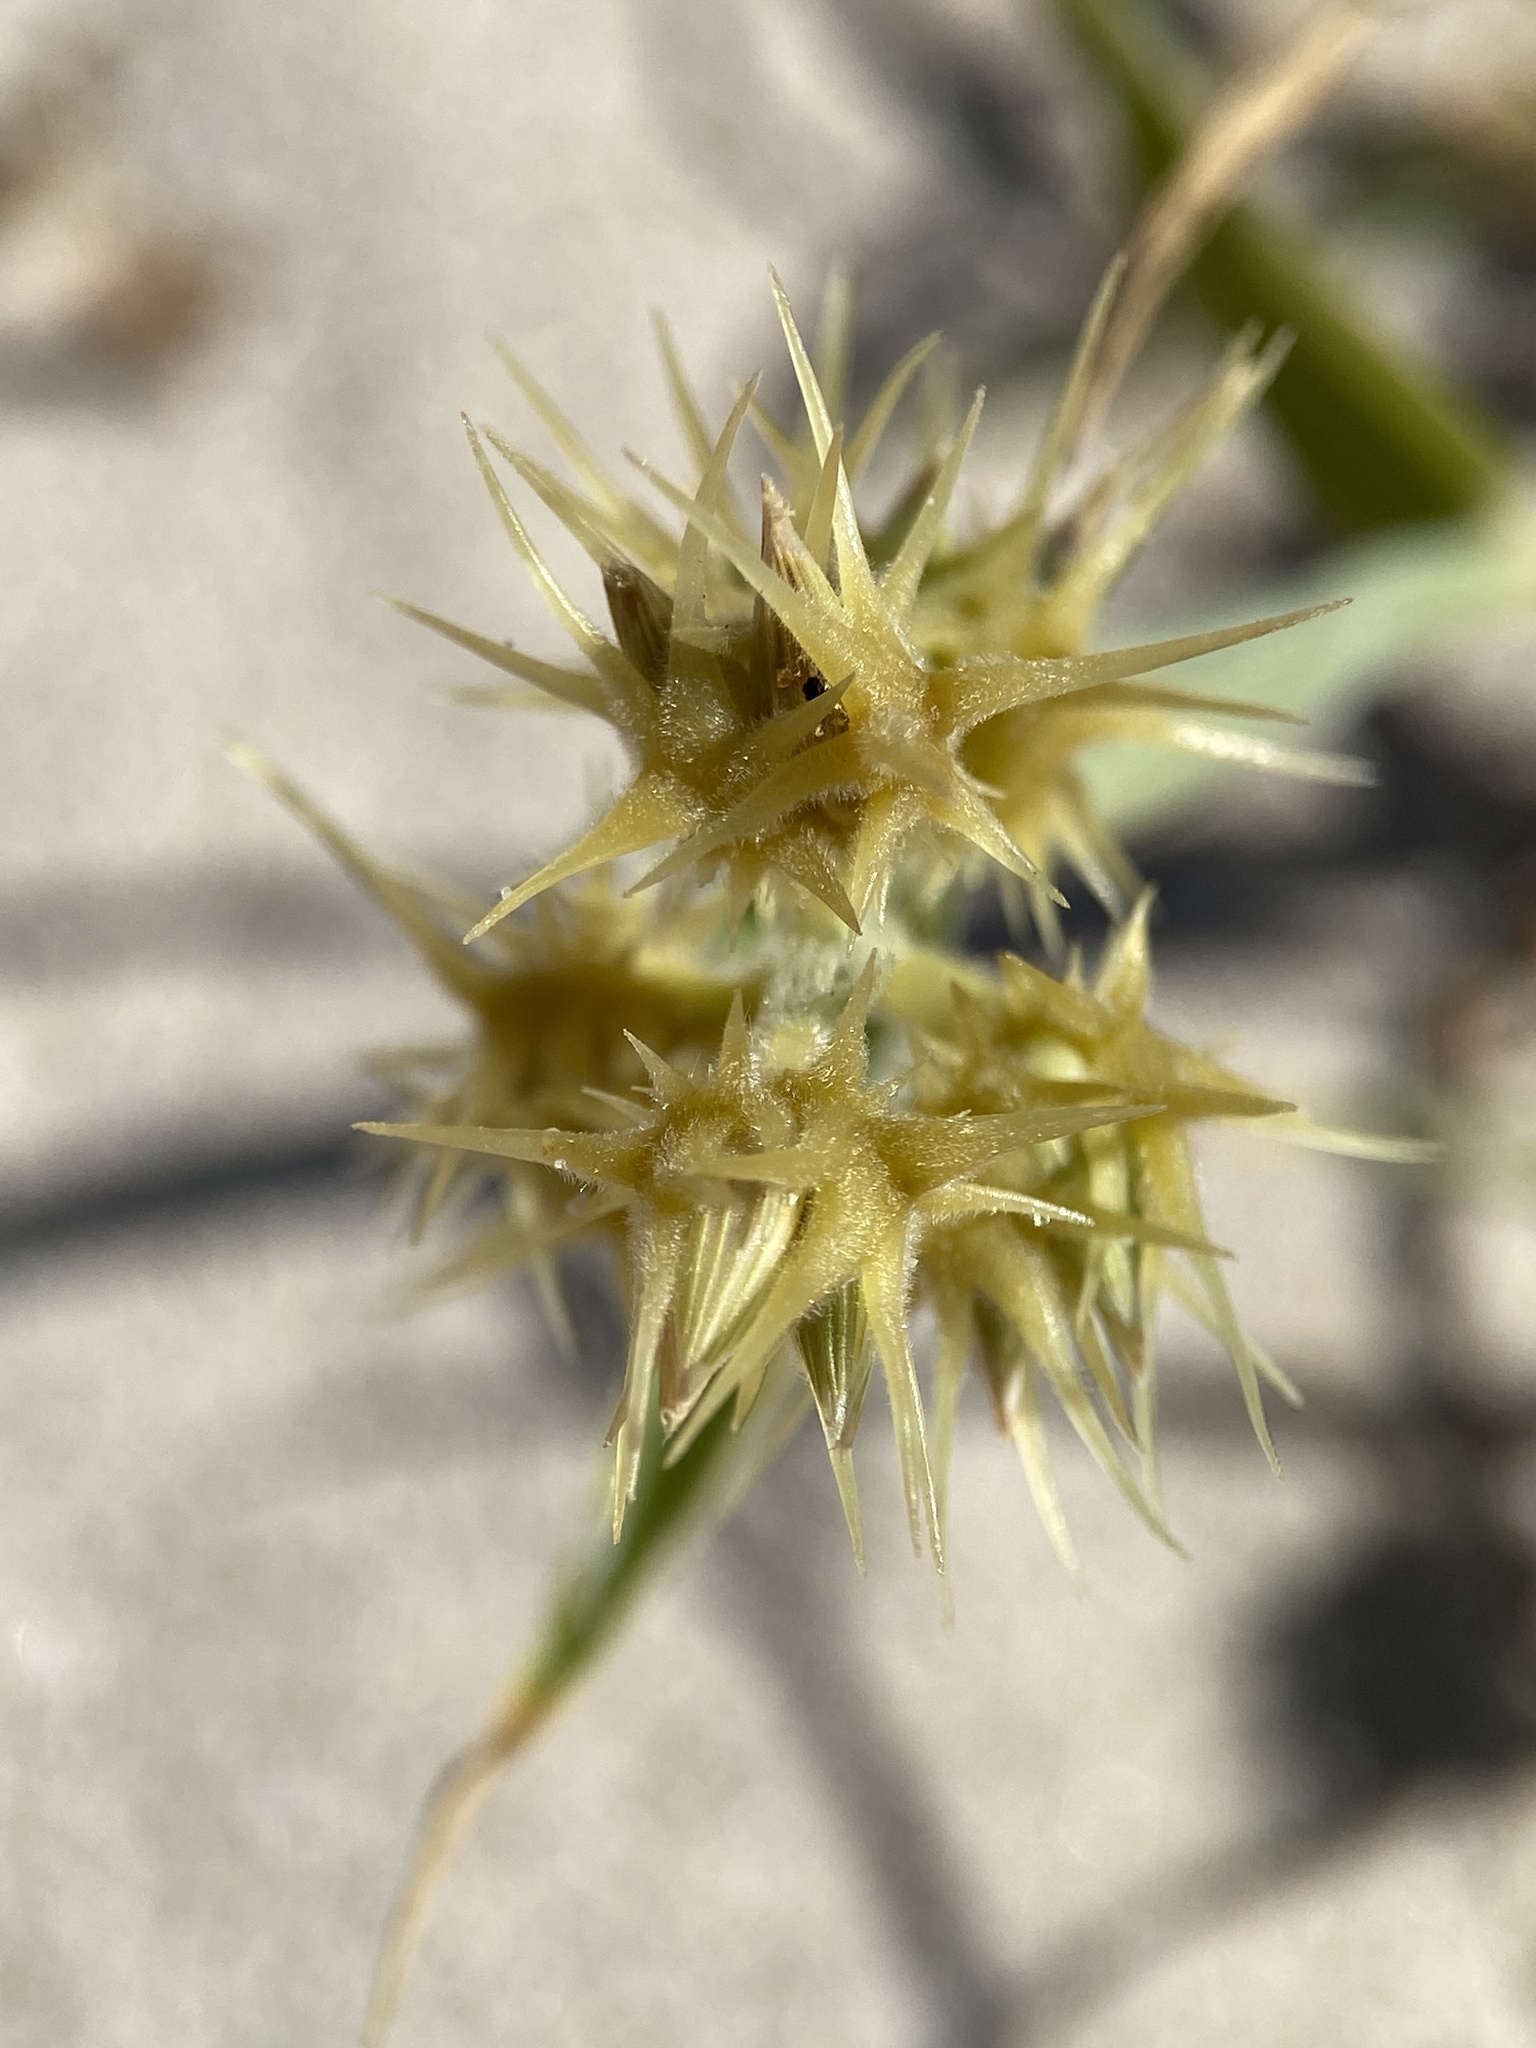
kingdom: Plantae
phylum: Tracheophyta
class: Liliopsida
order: Poales
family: Poaceae
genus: Cenchrus
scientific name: Cenchrus palmeri
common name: Giant sandbur
